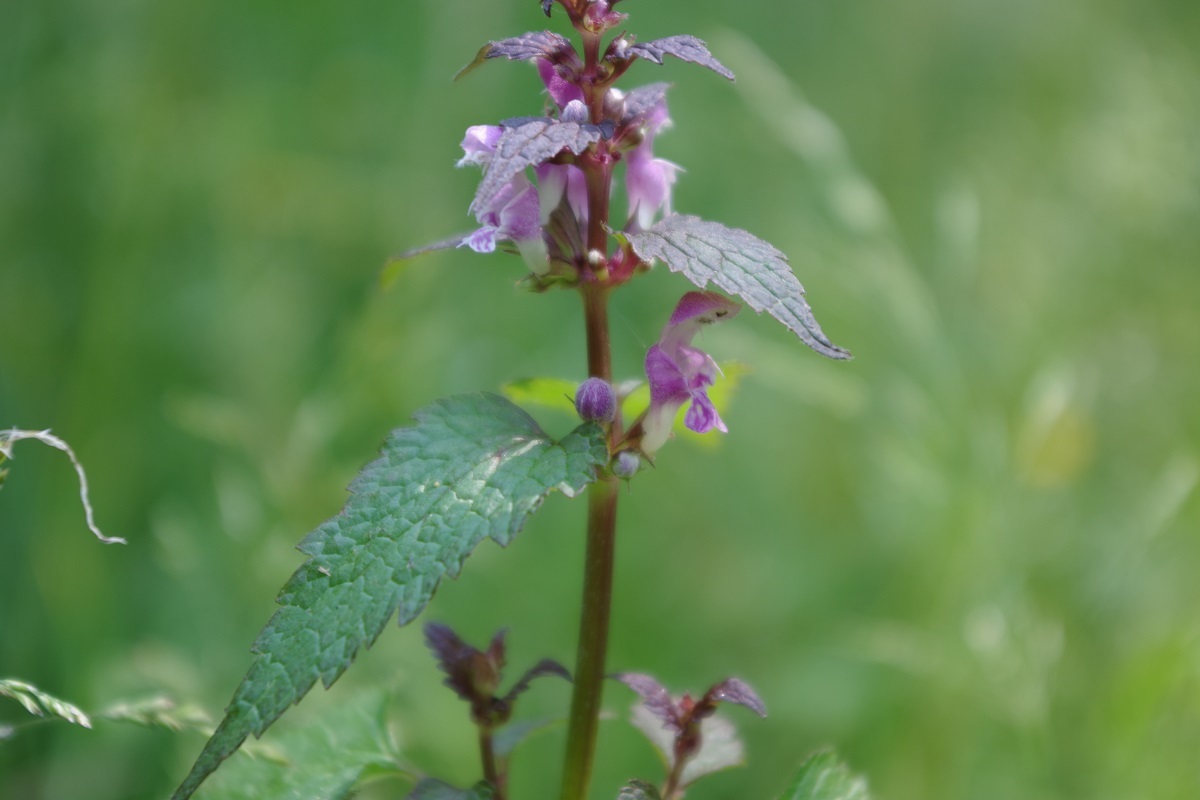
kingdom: Plantae
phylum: Tracheophyta
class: Magnoliopsida
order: Lamiales
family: Lamiaceae
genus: Lamium
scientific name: Lamium maculatum
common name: Spotted dead-nettle
